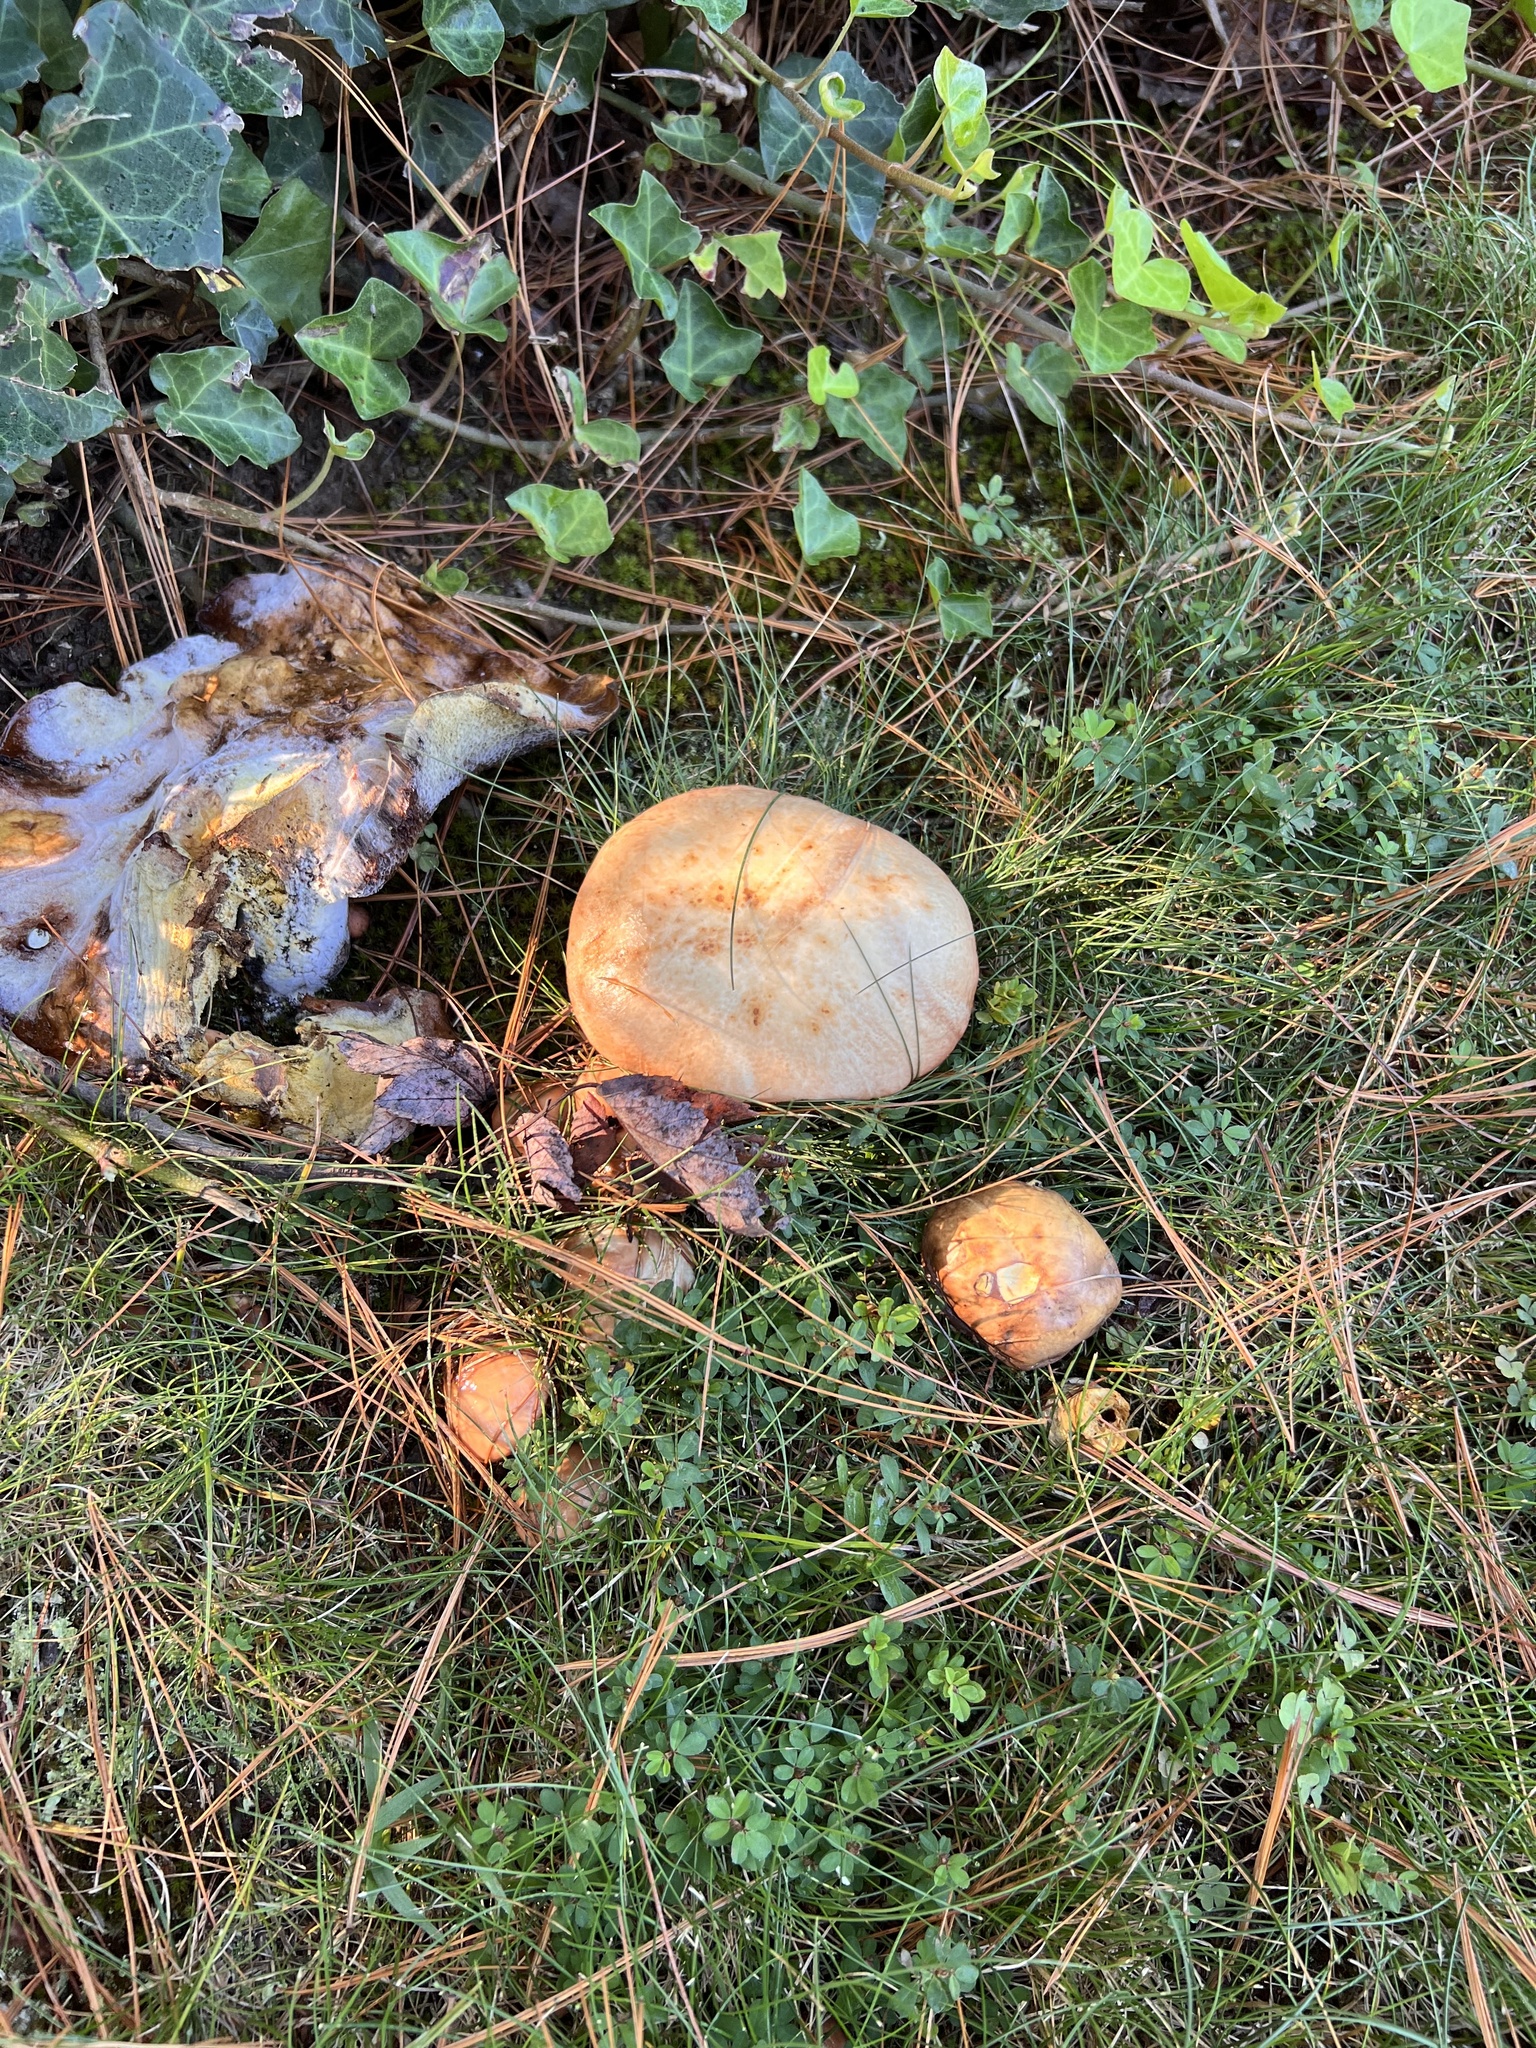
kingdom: Fungi
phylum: Basidiomycota
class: Agaricomycetes
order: Boletales
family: Suillaceae
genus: Fuscoboletinus
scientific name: Fuscoboletinus weaverae
